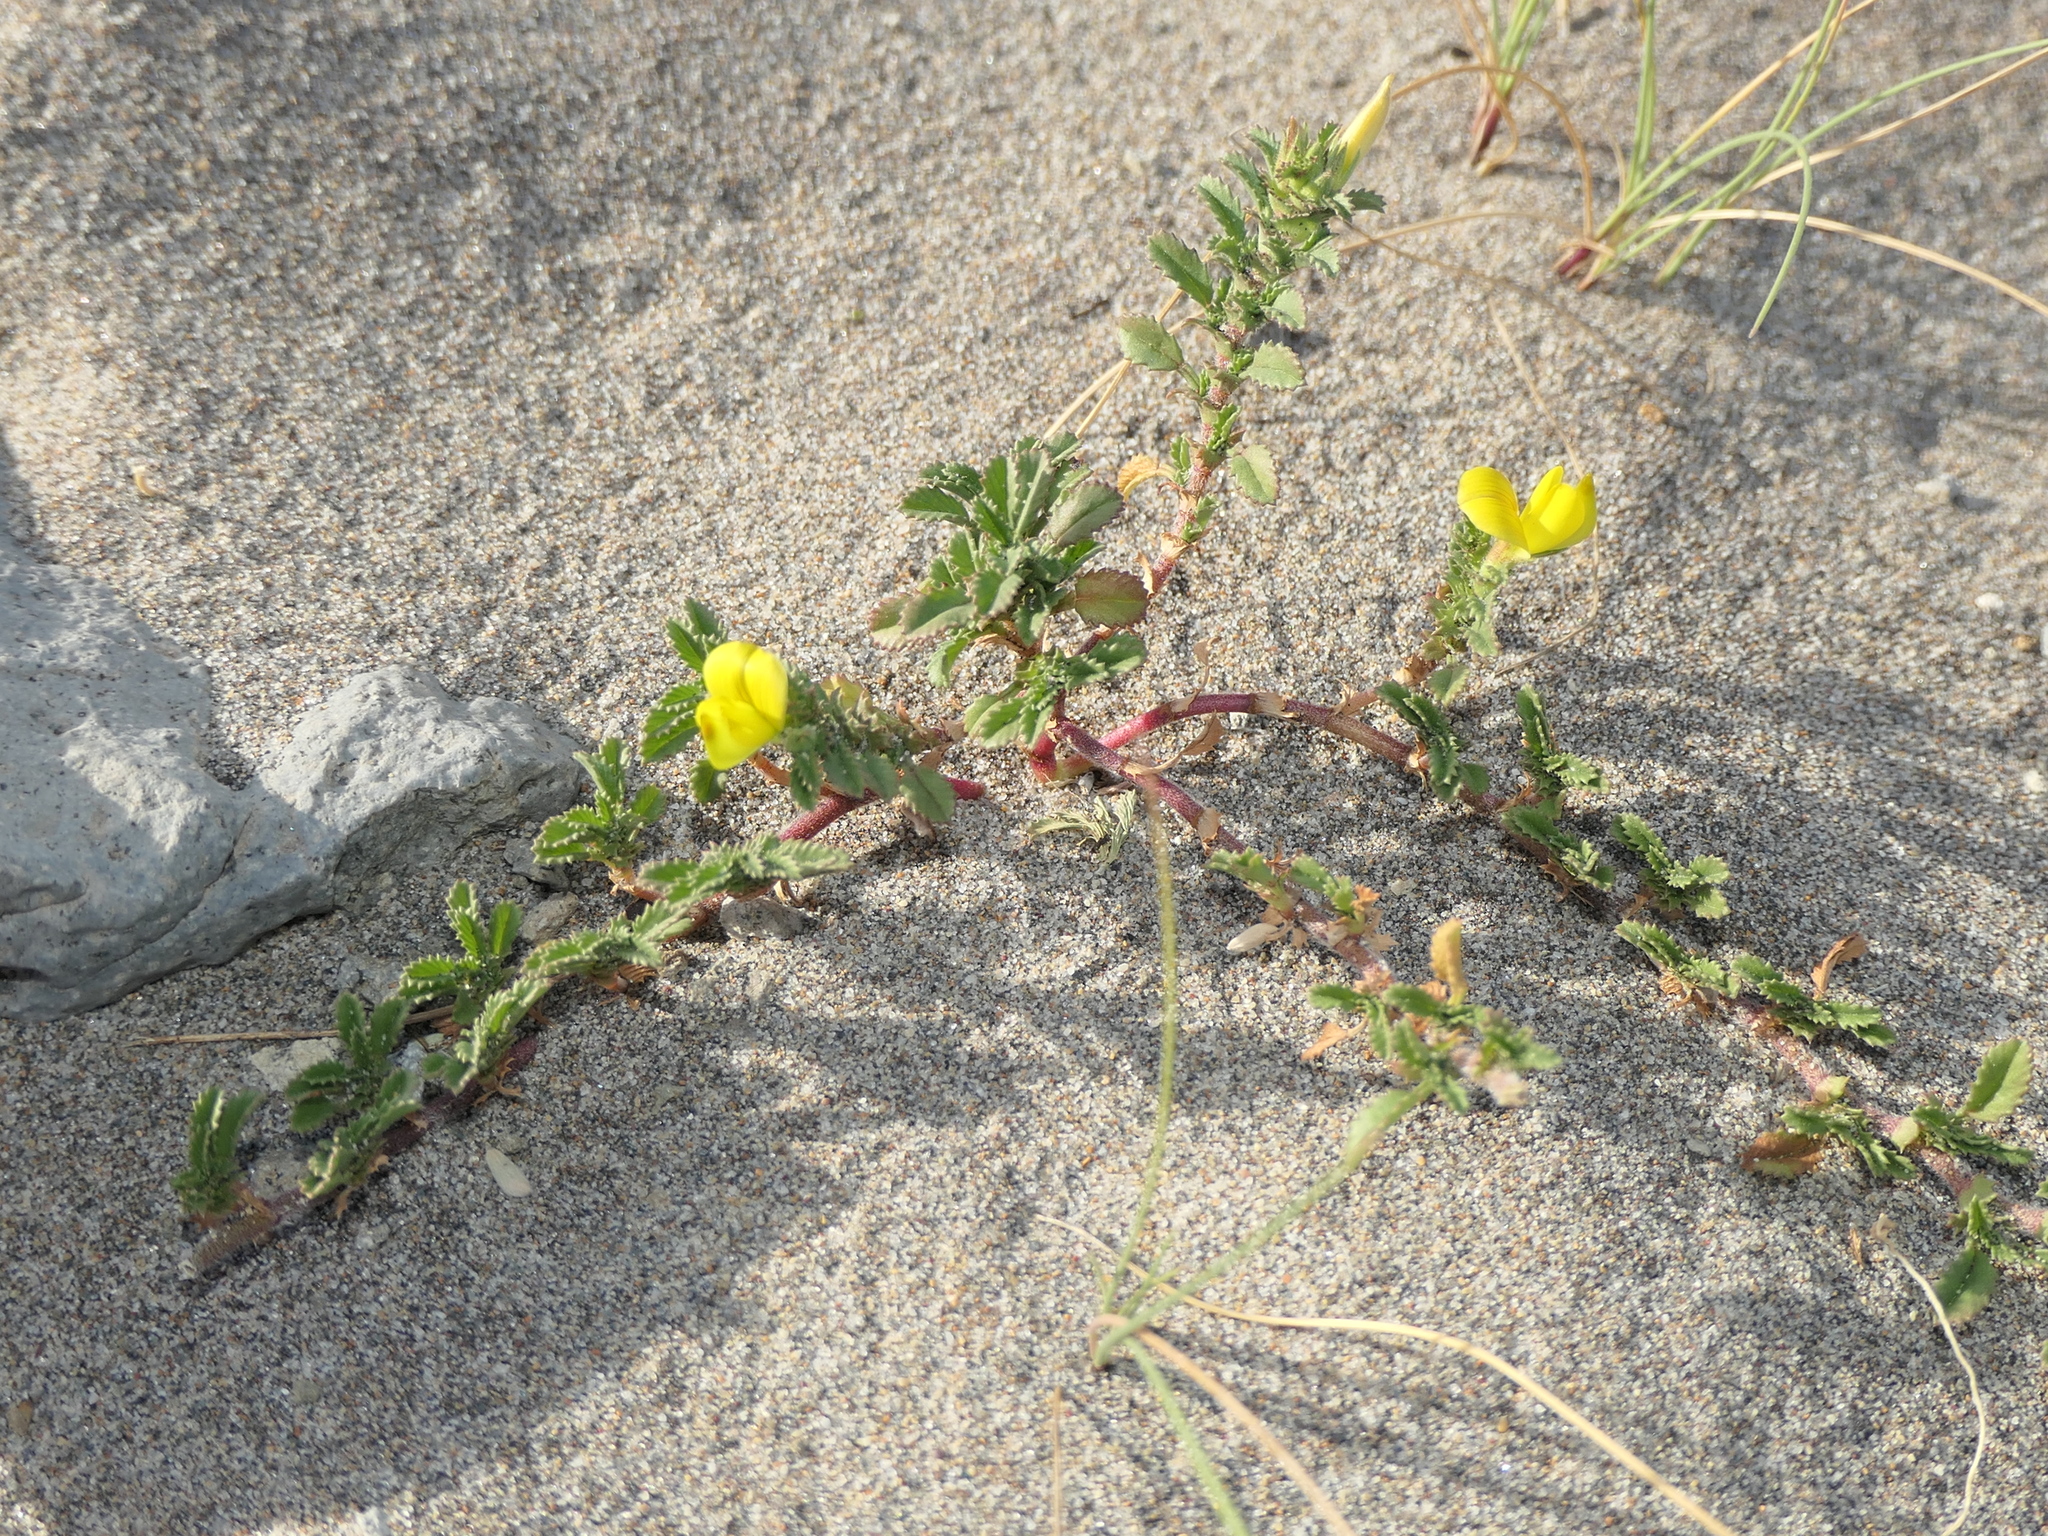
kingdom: Plantae
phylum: Tracheophyta
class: Magnoliopsida
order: Fabales
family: Fabaceae
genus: Ononis
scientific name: Ononis variegata
